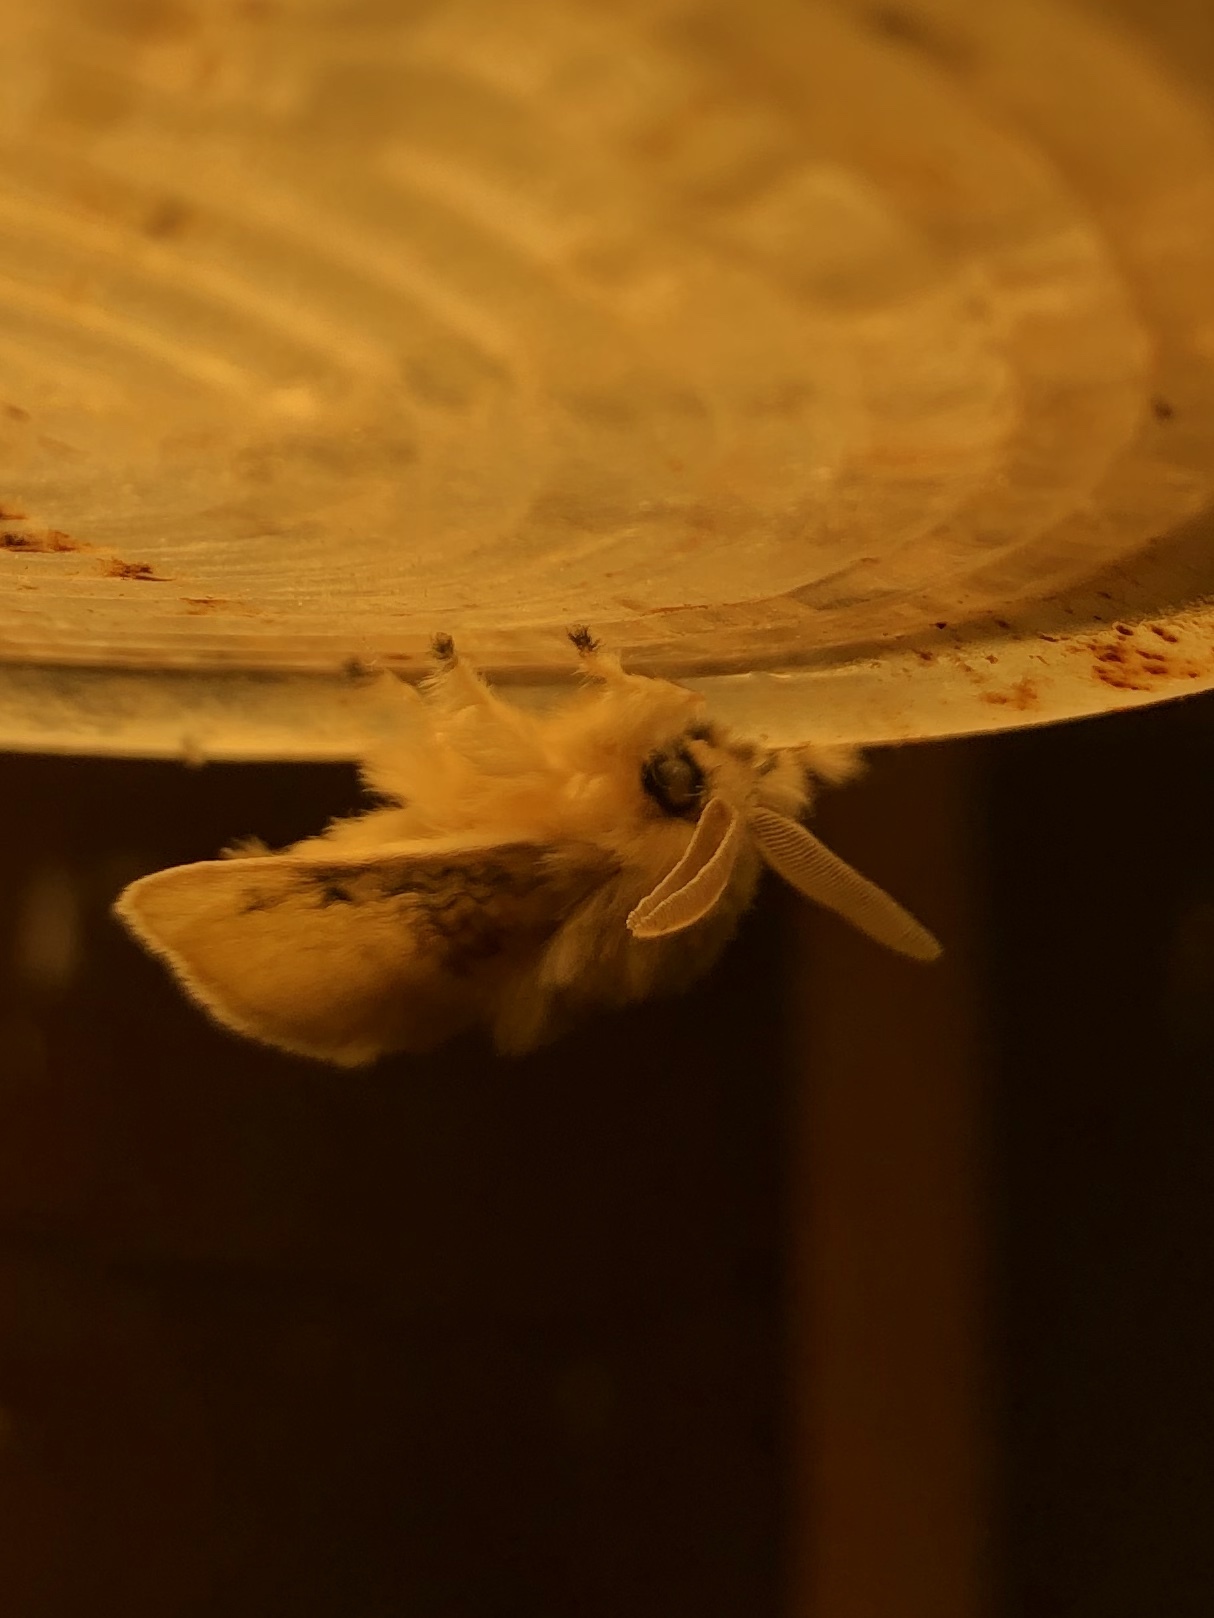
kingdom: Animalia
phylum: Arthropoda
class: Insecta
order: Lepidoptera
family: Megalopygidae
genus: Megalopyge
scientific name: Megalopyge crispata
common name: Black-waved flannel moth
